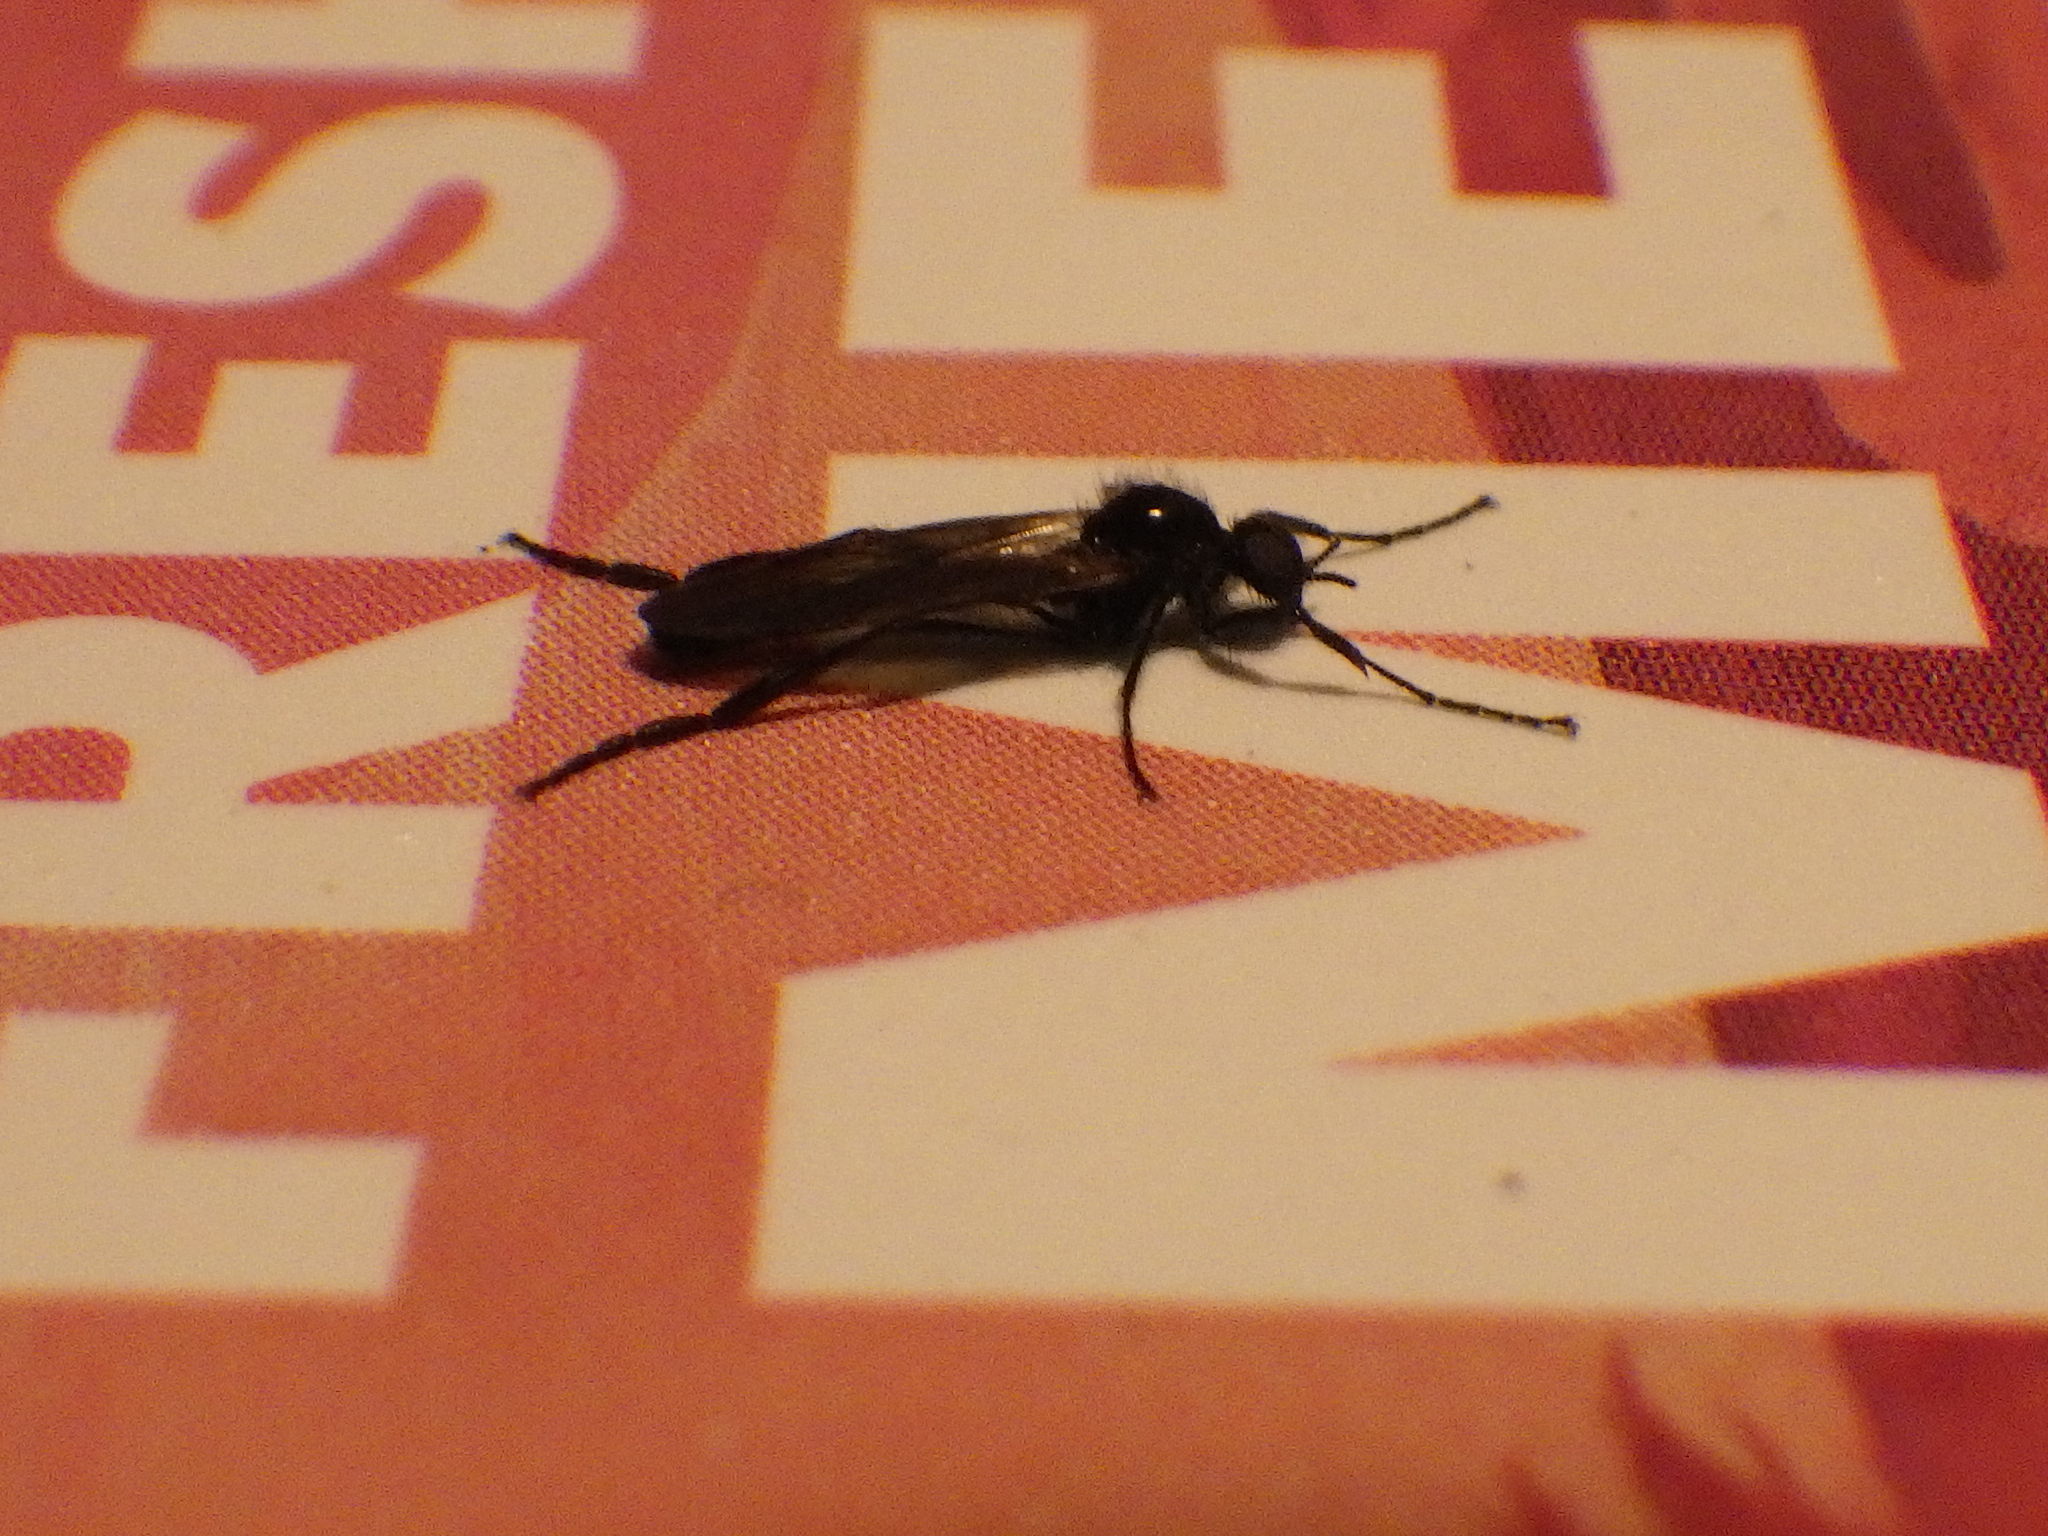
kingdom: Animalia
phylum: Arthropoda
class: Insecta
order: Diptera
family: Bibionidae
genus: Bibio
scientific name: Bibio slossonae
